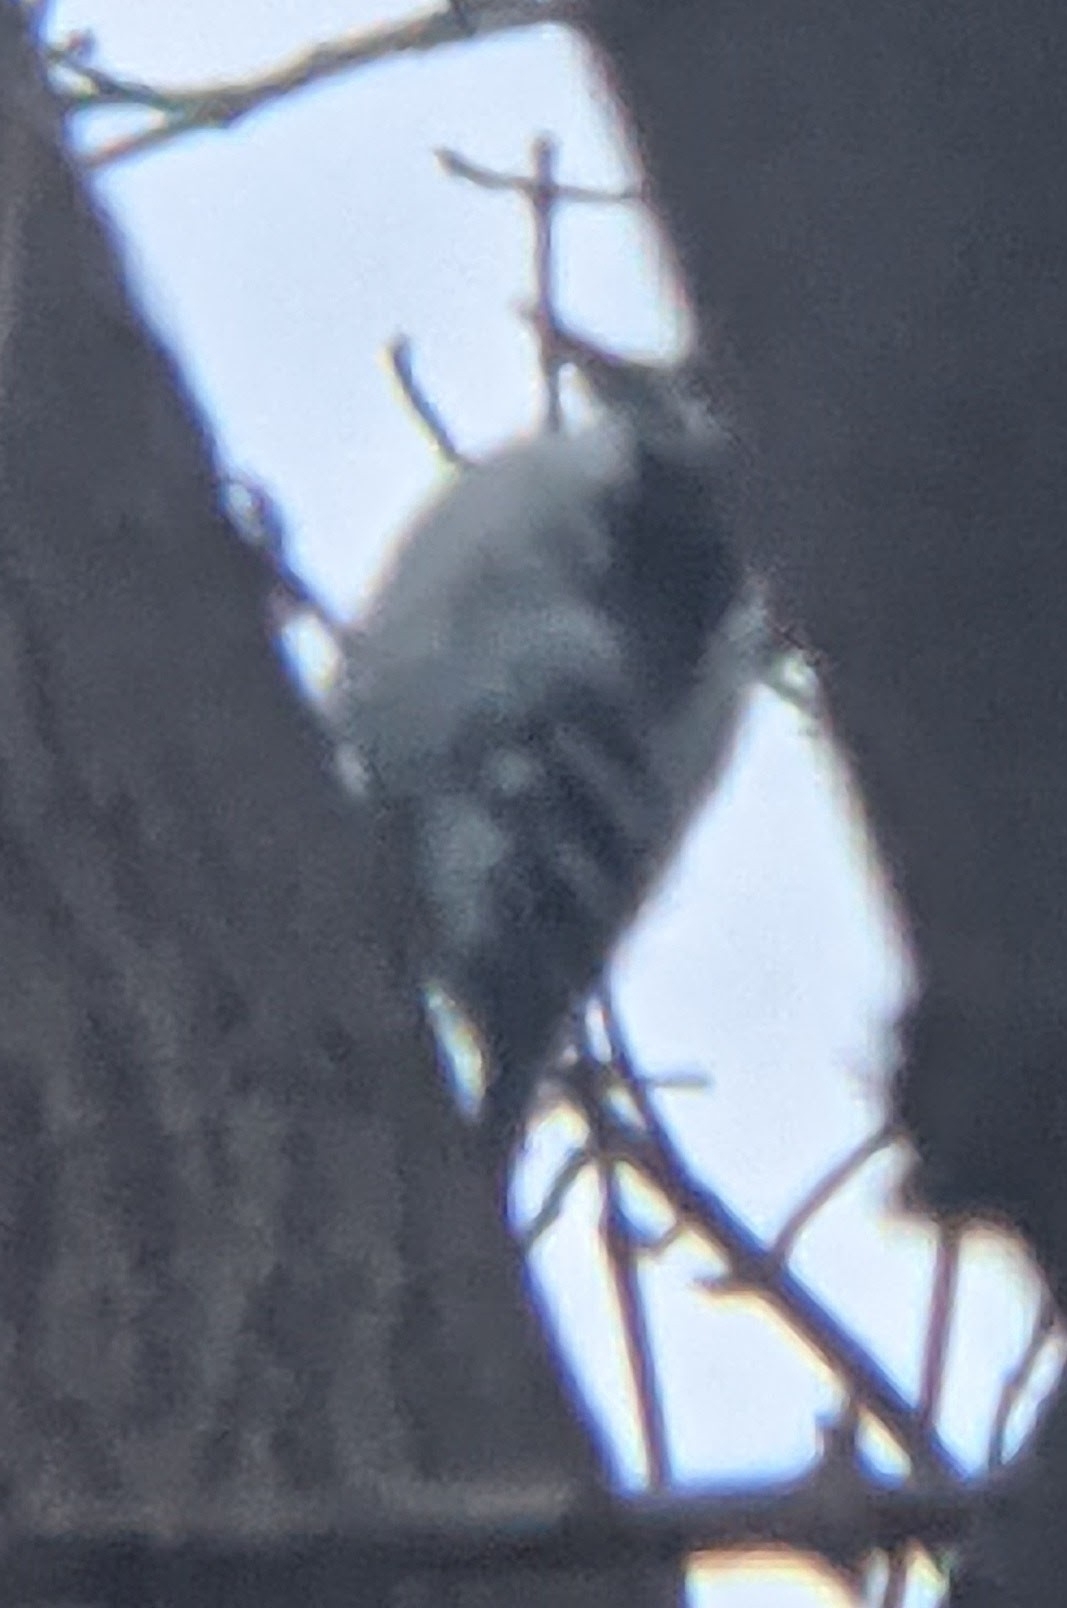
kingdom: Animalia
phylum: Chordata
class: Aves
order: Piciformes
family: Picidae
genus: Leuconotopicus
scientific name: Leuconotopicus villosus
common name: Hairy woodpecker
